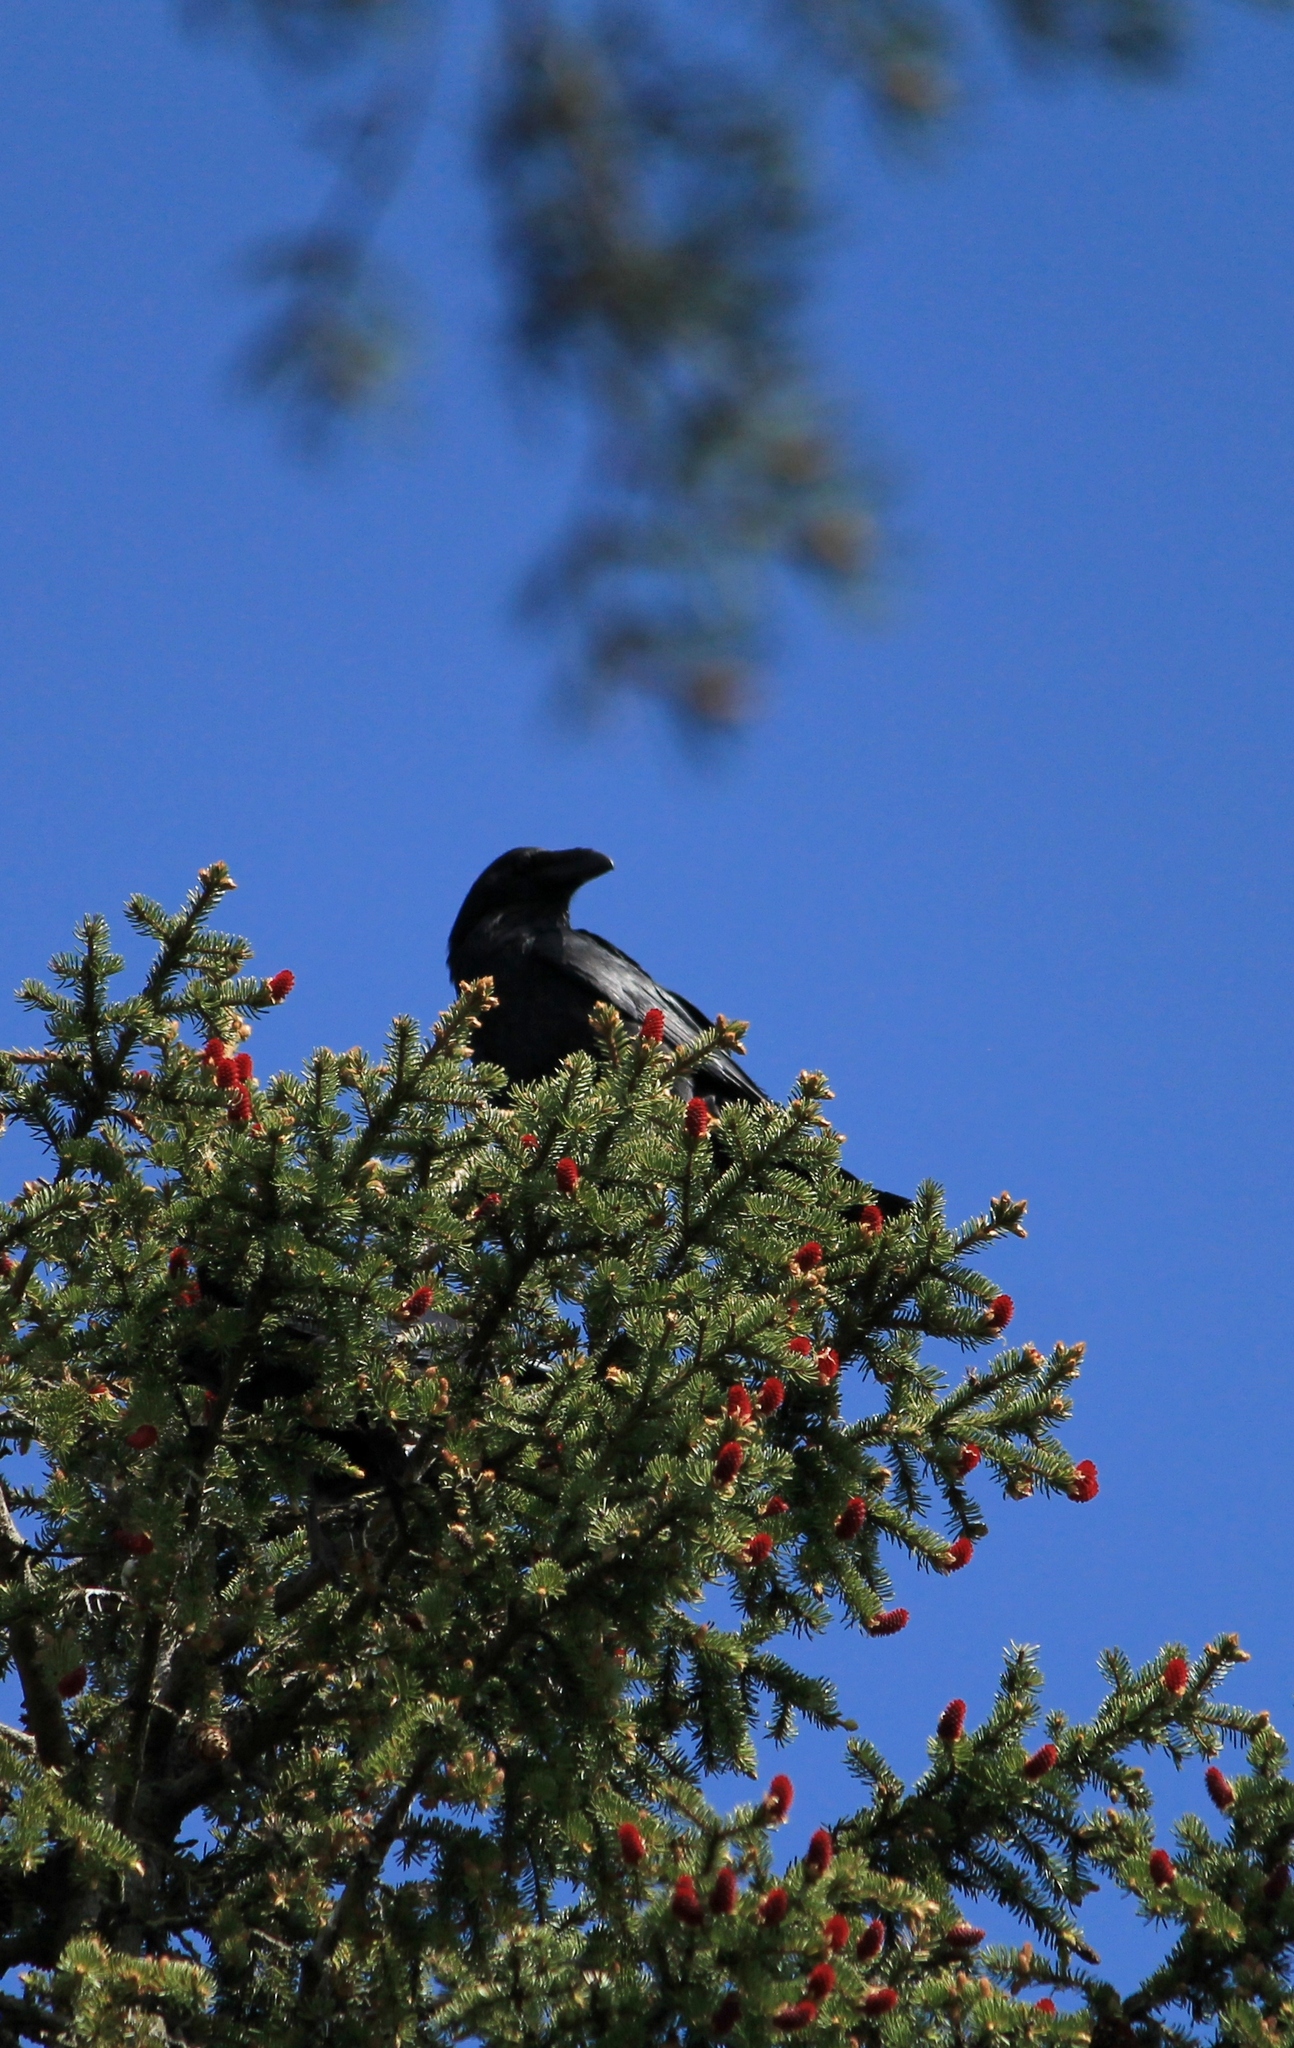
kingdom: Animalia
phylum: Chordata
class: Aves
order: Passeriformes
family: Corvidae
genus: Corvus
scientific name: Corvus corax
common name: Common raven
